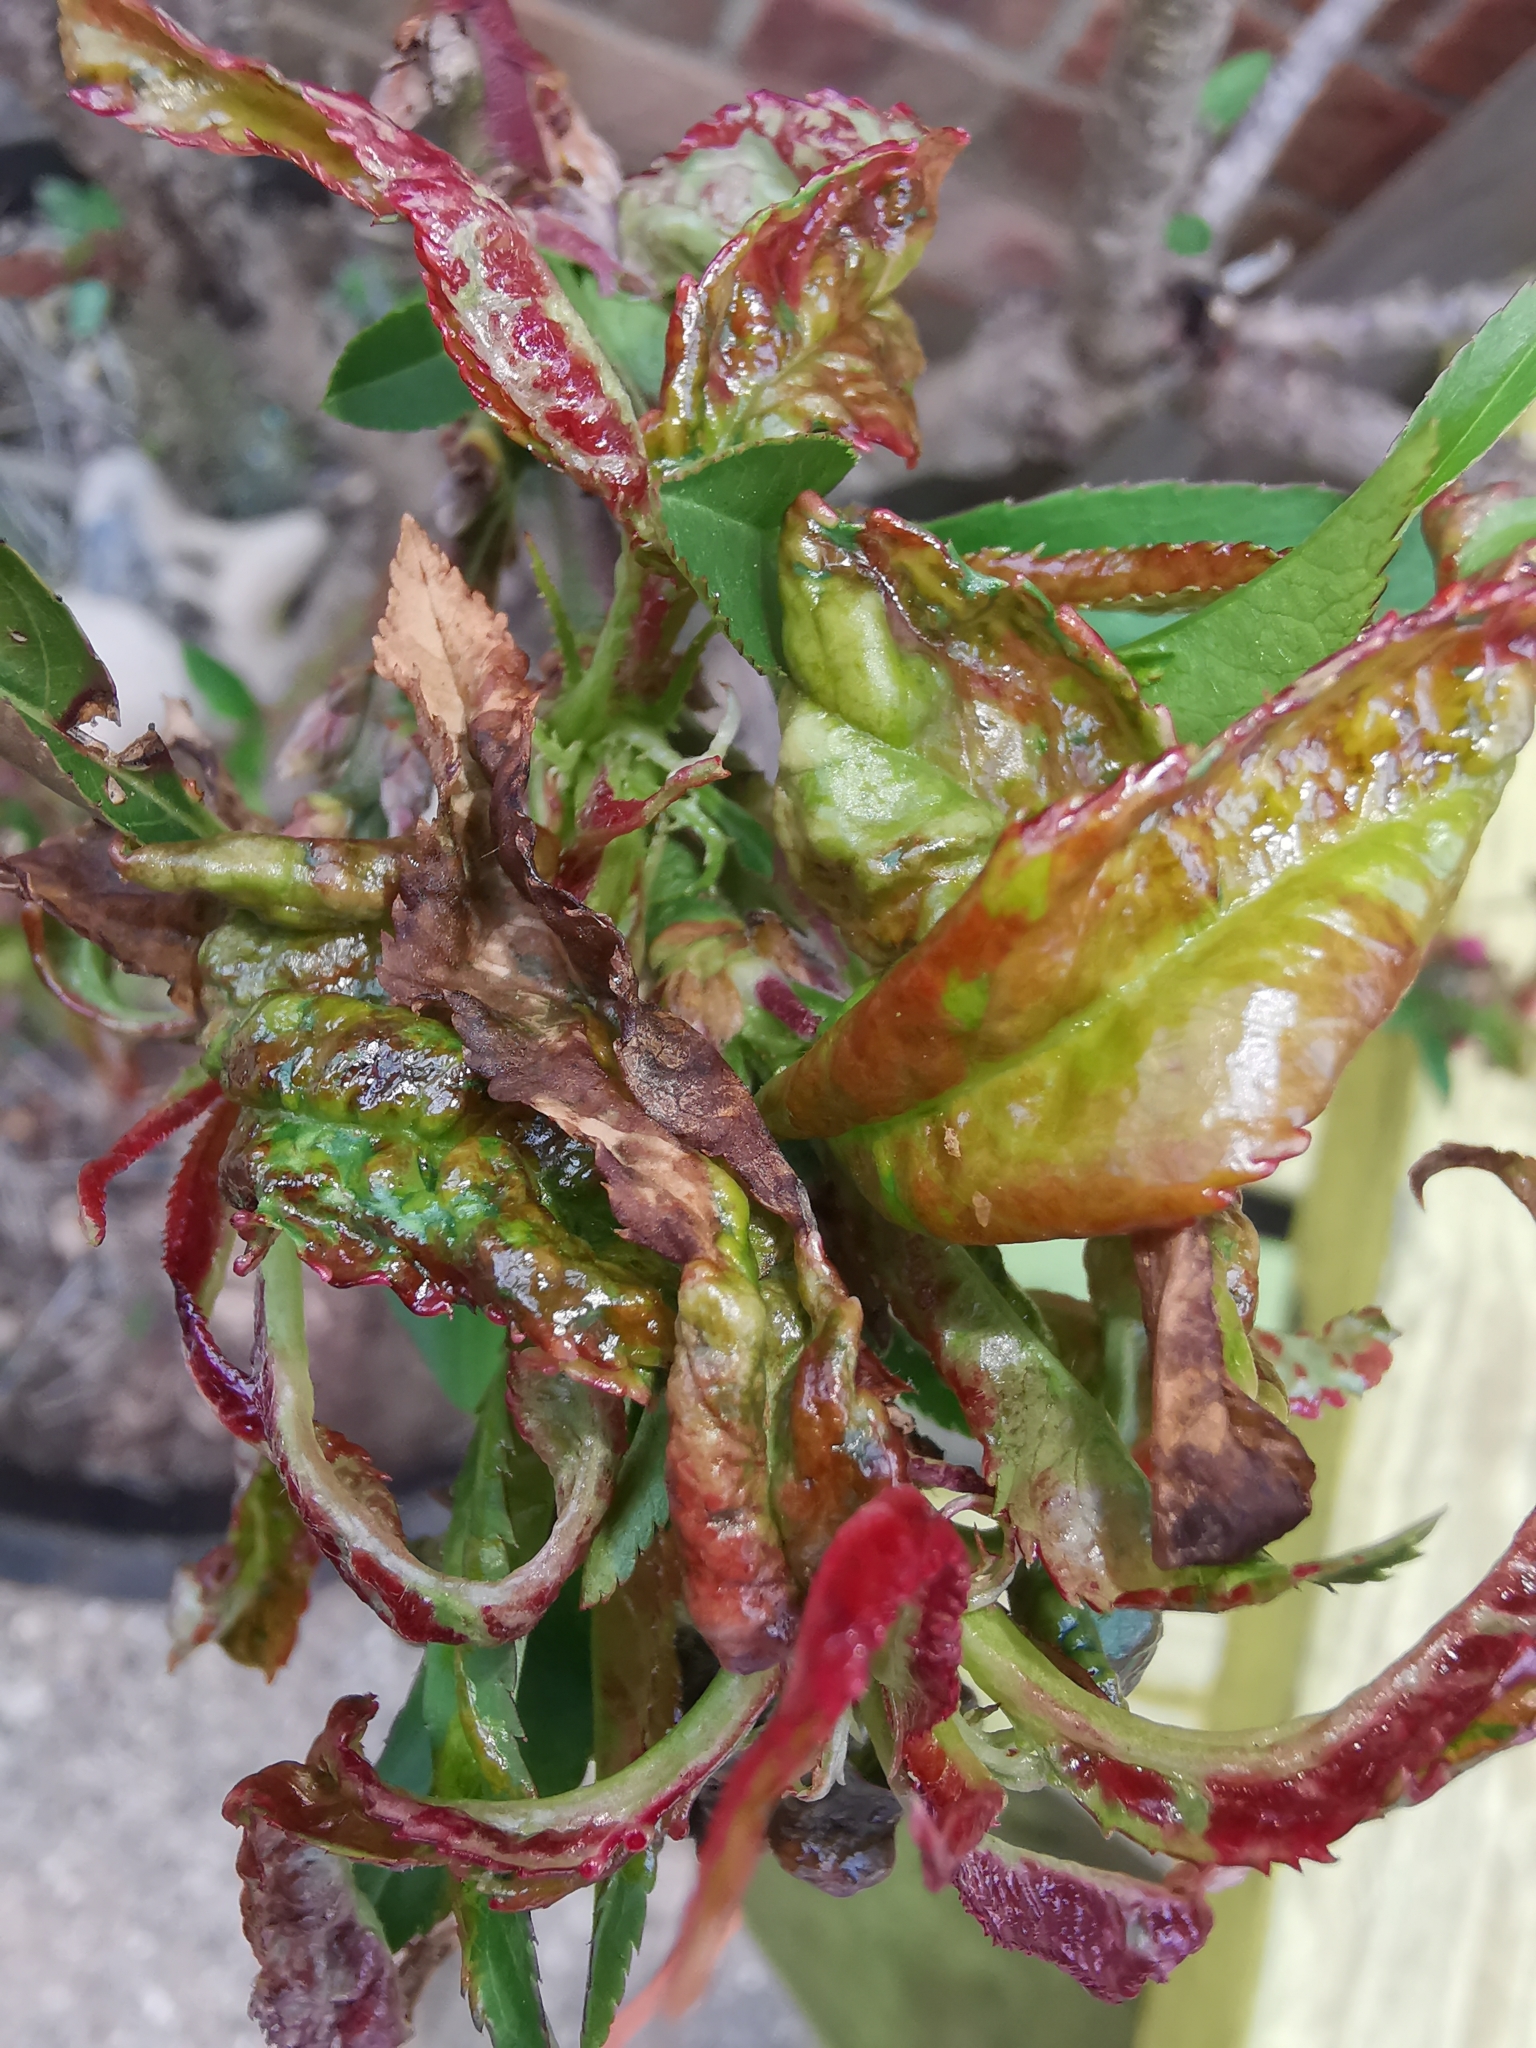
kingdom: Fungi
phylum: Ascomycota
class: Taphrinomycetes
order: Taphrinales
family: Taphrinaceae
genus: Taphrina
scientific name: Taphrina deformans
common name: Peach leaf curl
